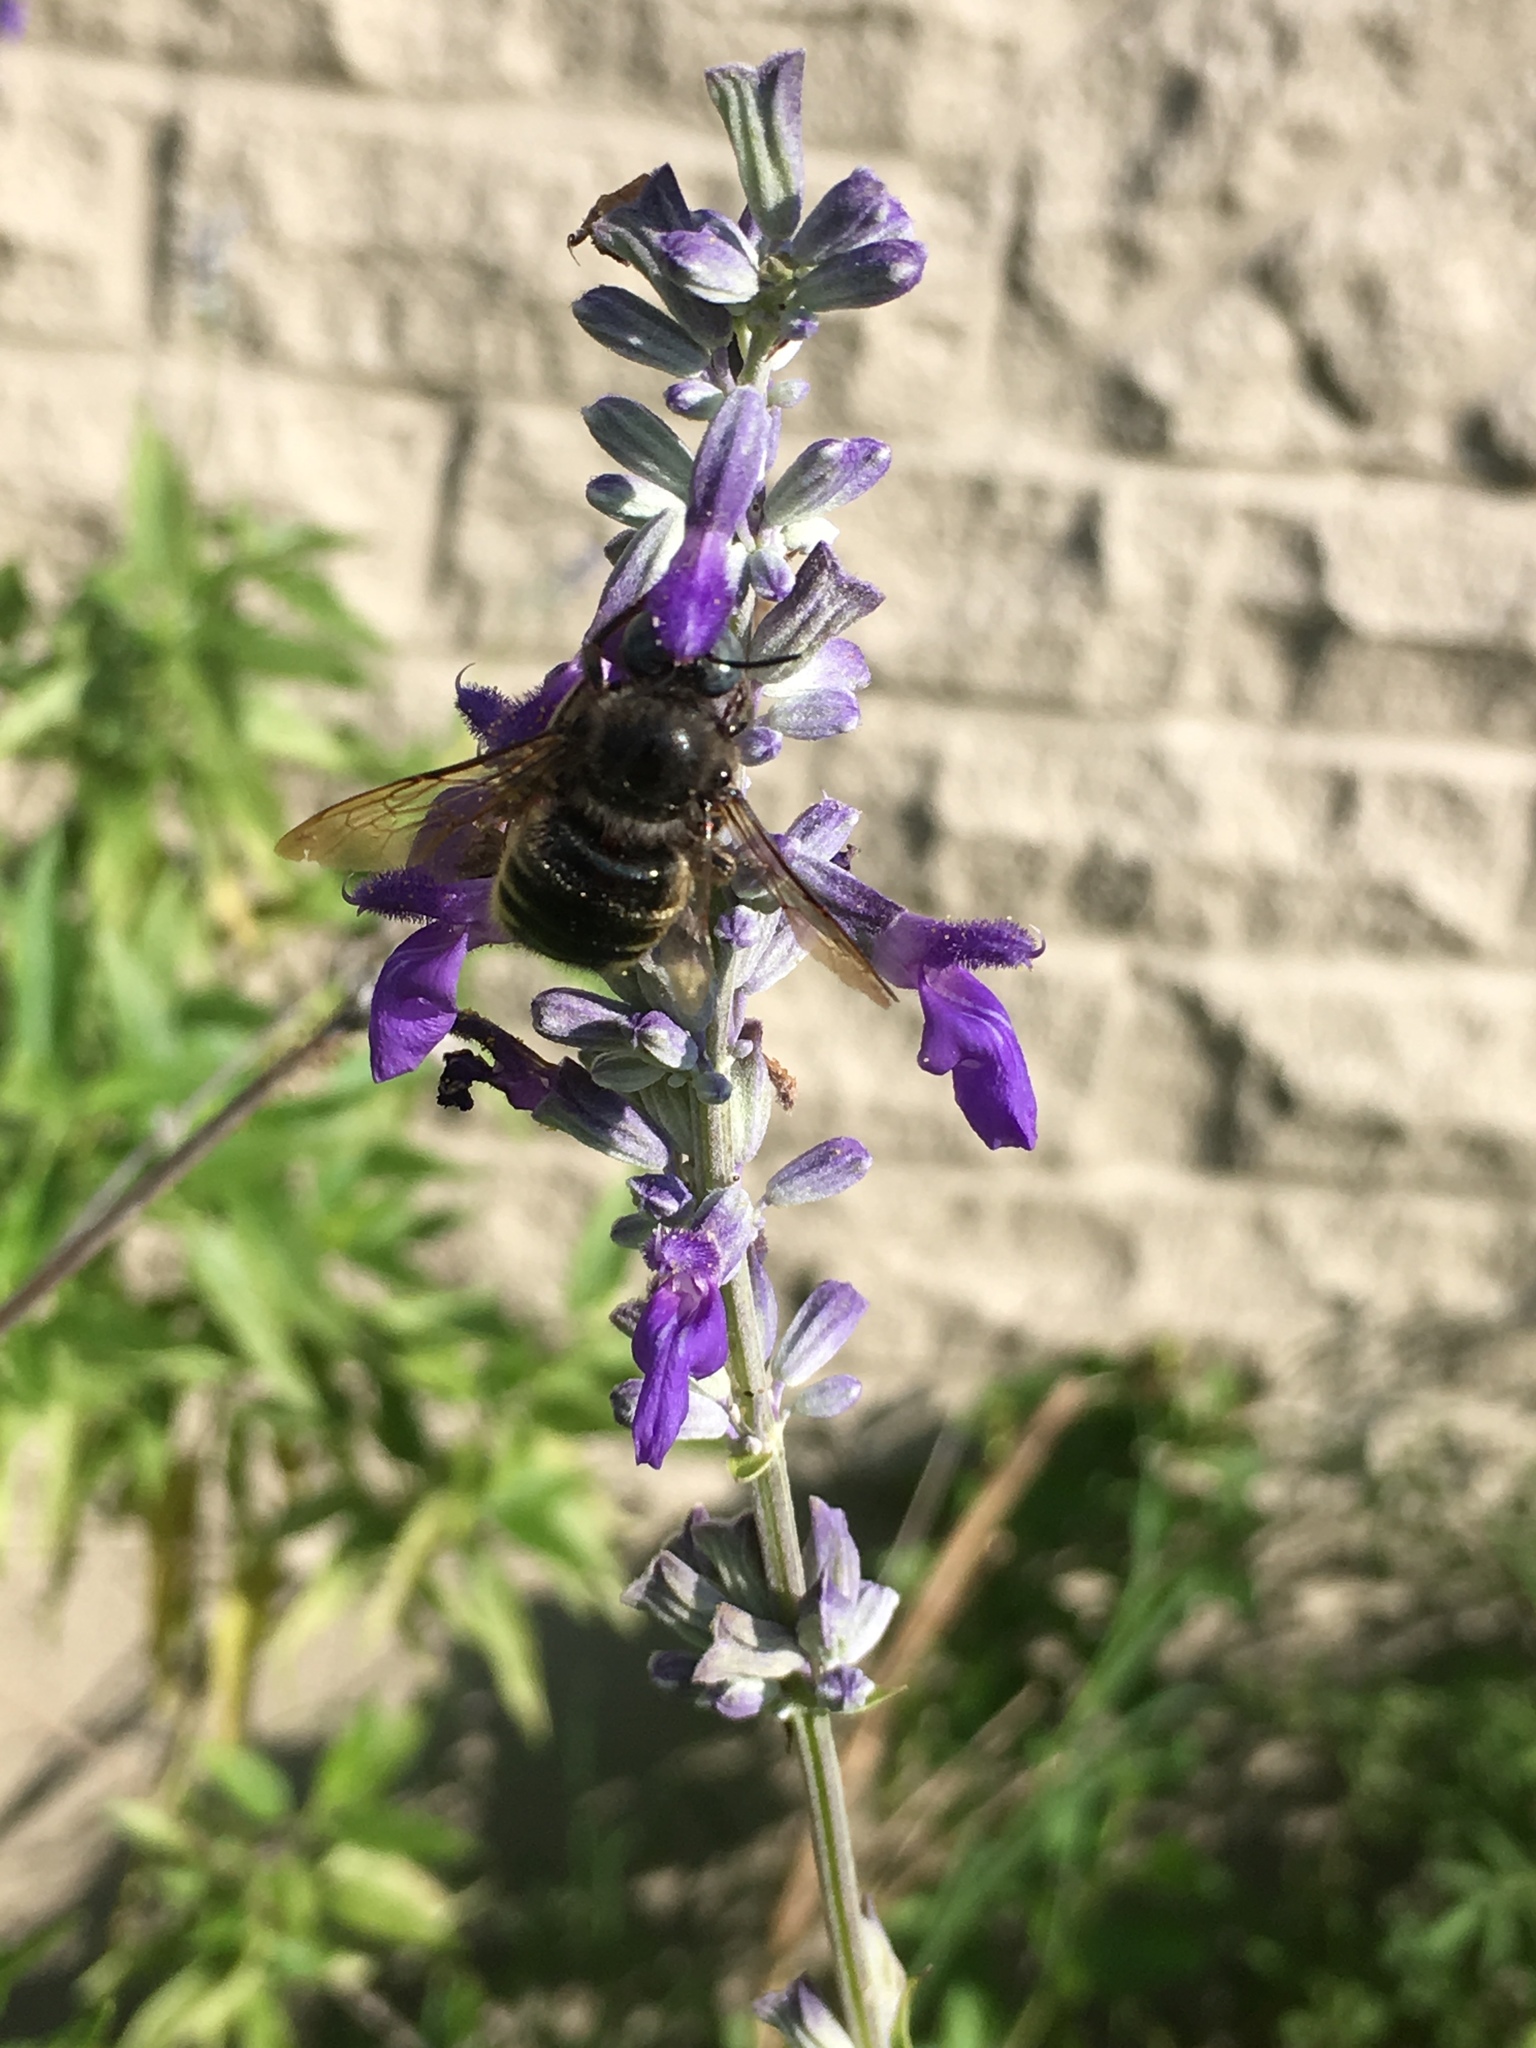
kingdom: Animalia
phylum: Arthropoda
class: Insecta
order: Hymenoptera
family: Apidae
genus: Xylocopa
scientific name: Xylocopa tabaniformis
